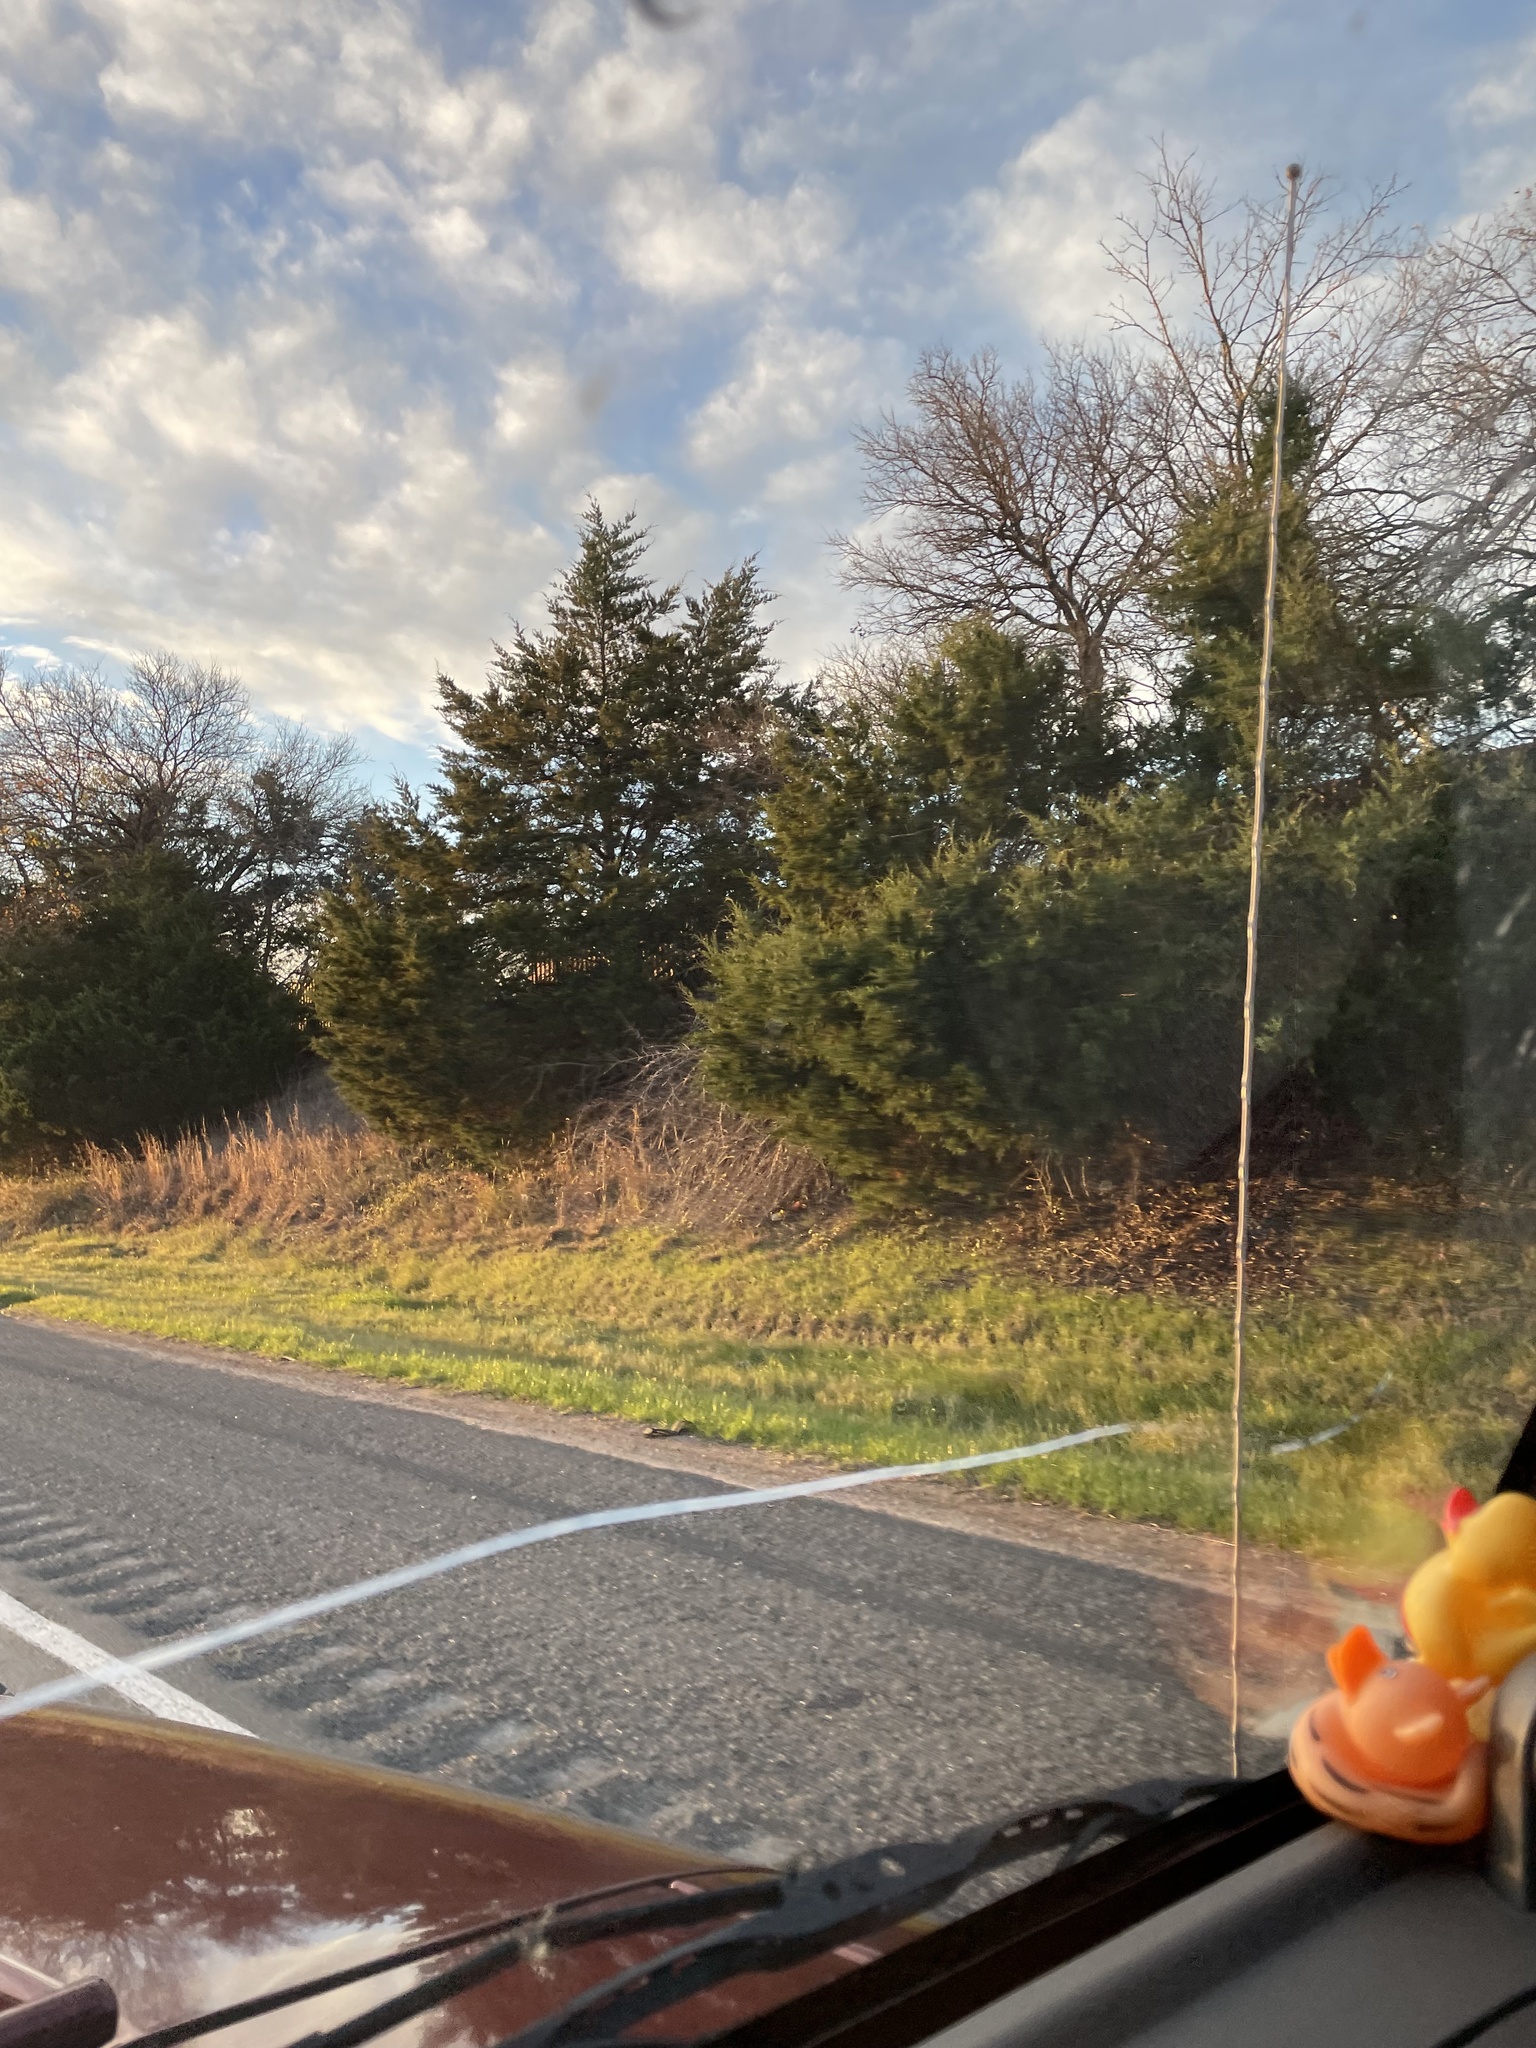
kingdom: Plantae
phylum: Tracheophyta
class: Pinopsida
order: Pinales
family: Cupressaceae
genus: Juniperus
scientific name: Juniperus virginiana
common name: Red juniper
